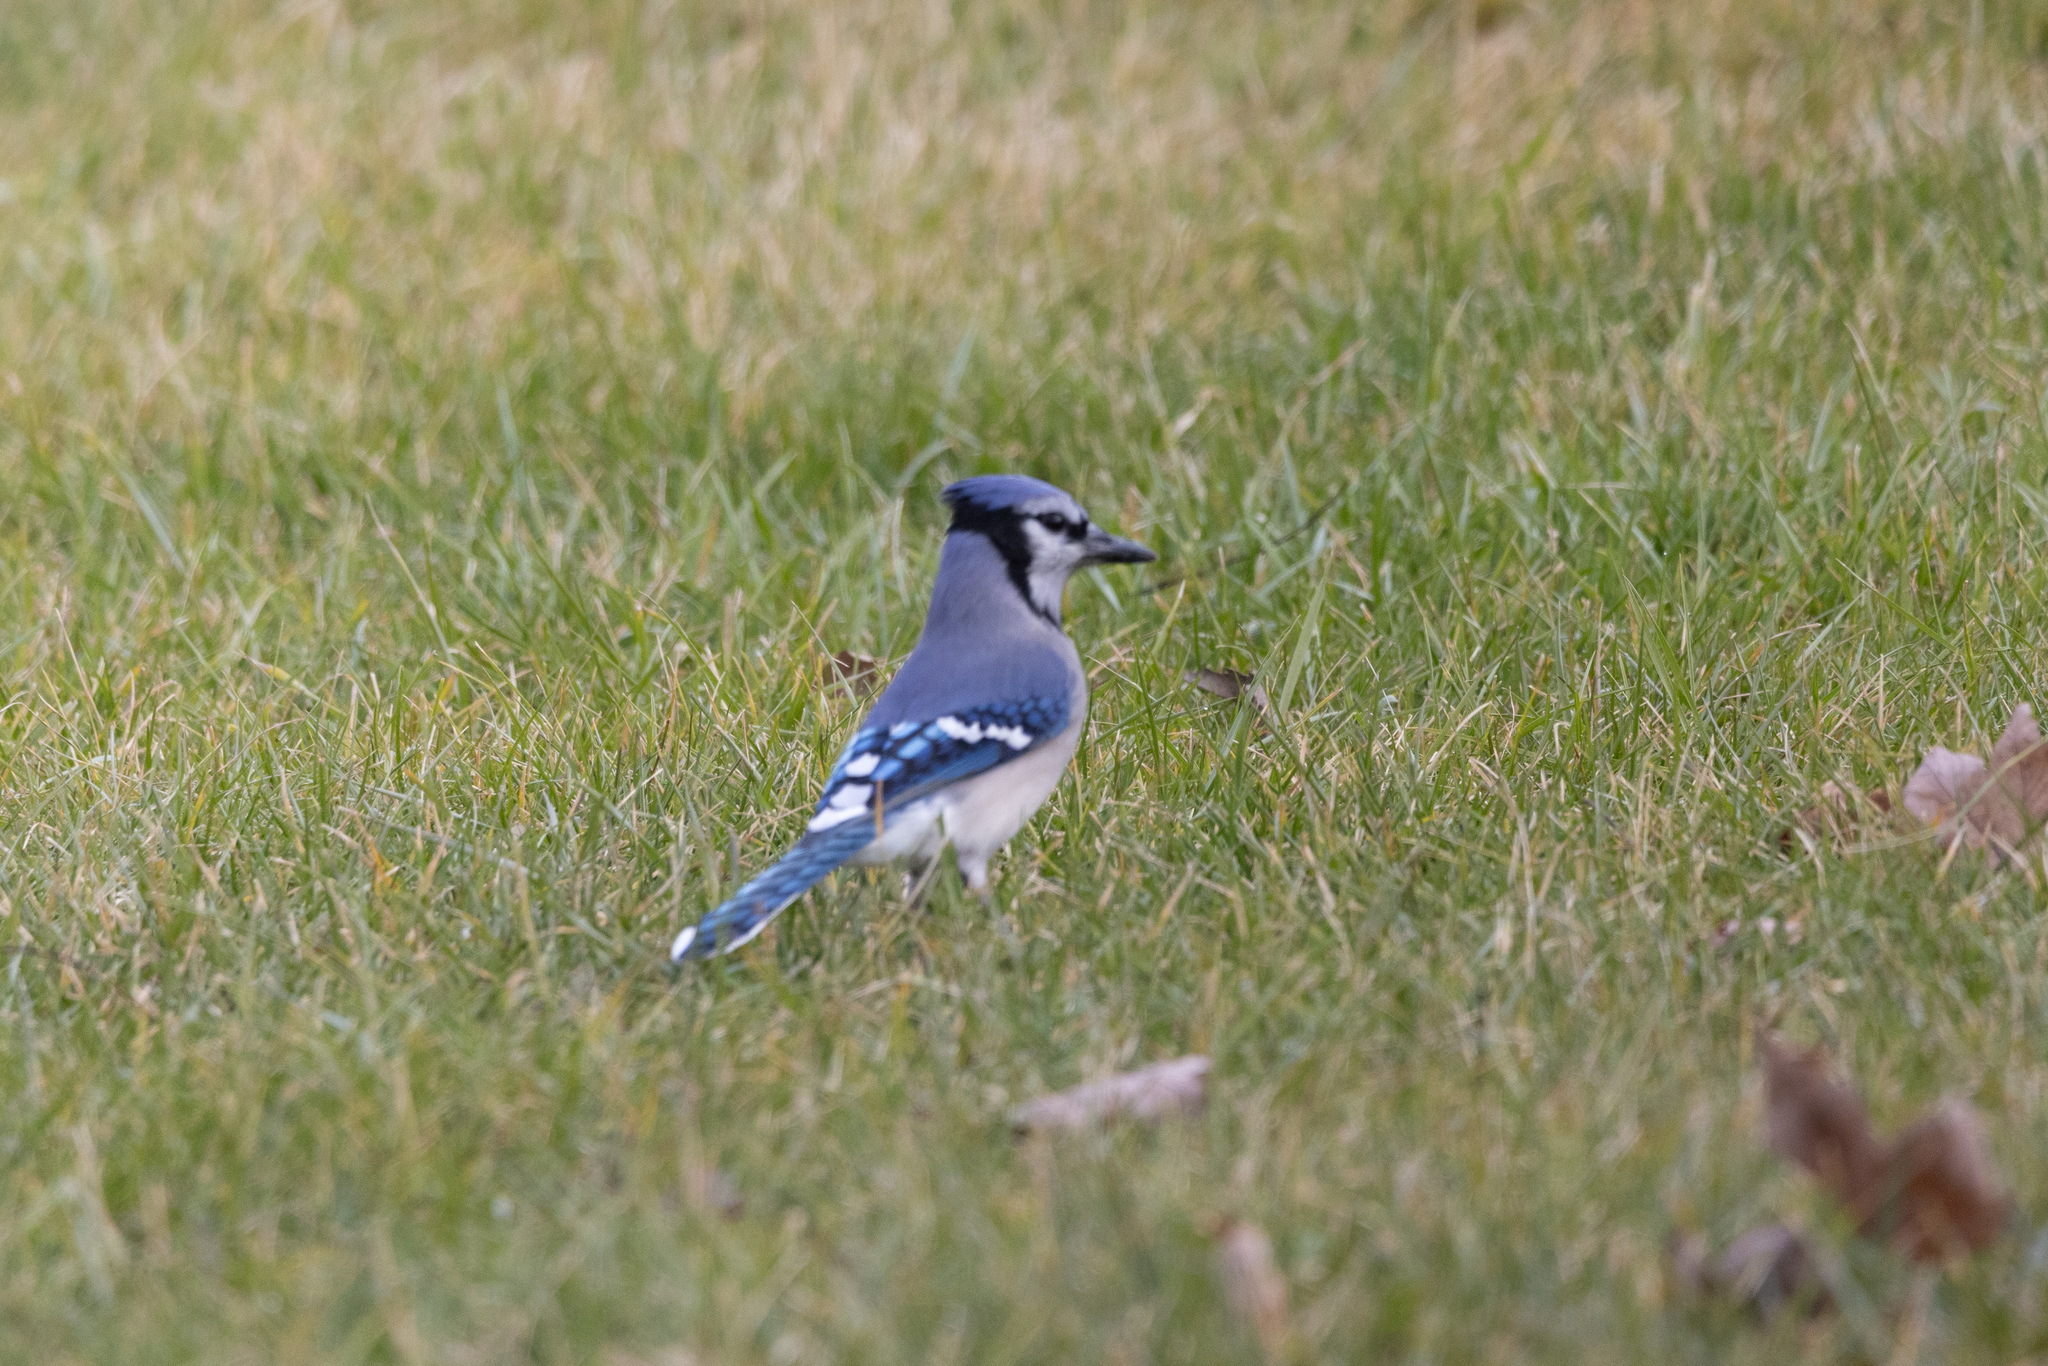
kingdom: Animalia
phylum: Chordata
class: Aves
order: Passeriformes
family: Corvidae
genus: Cyanocitta
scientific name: Cyanocitta cristata
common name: Blue jay
